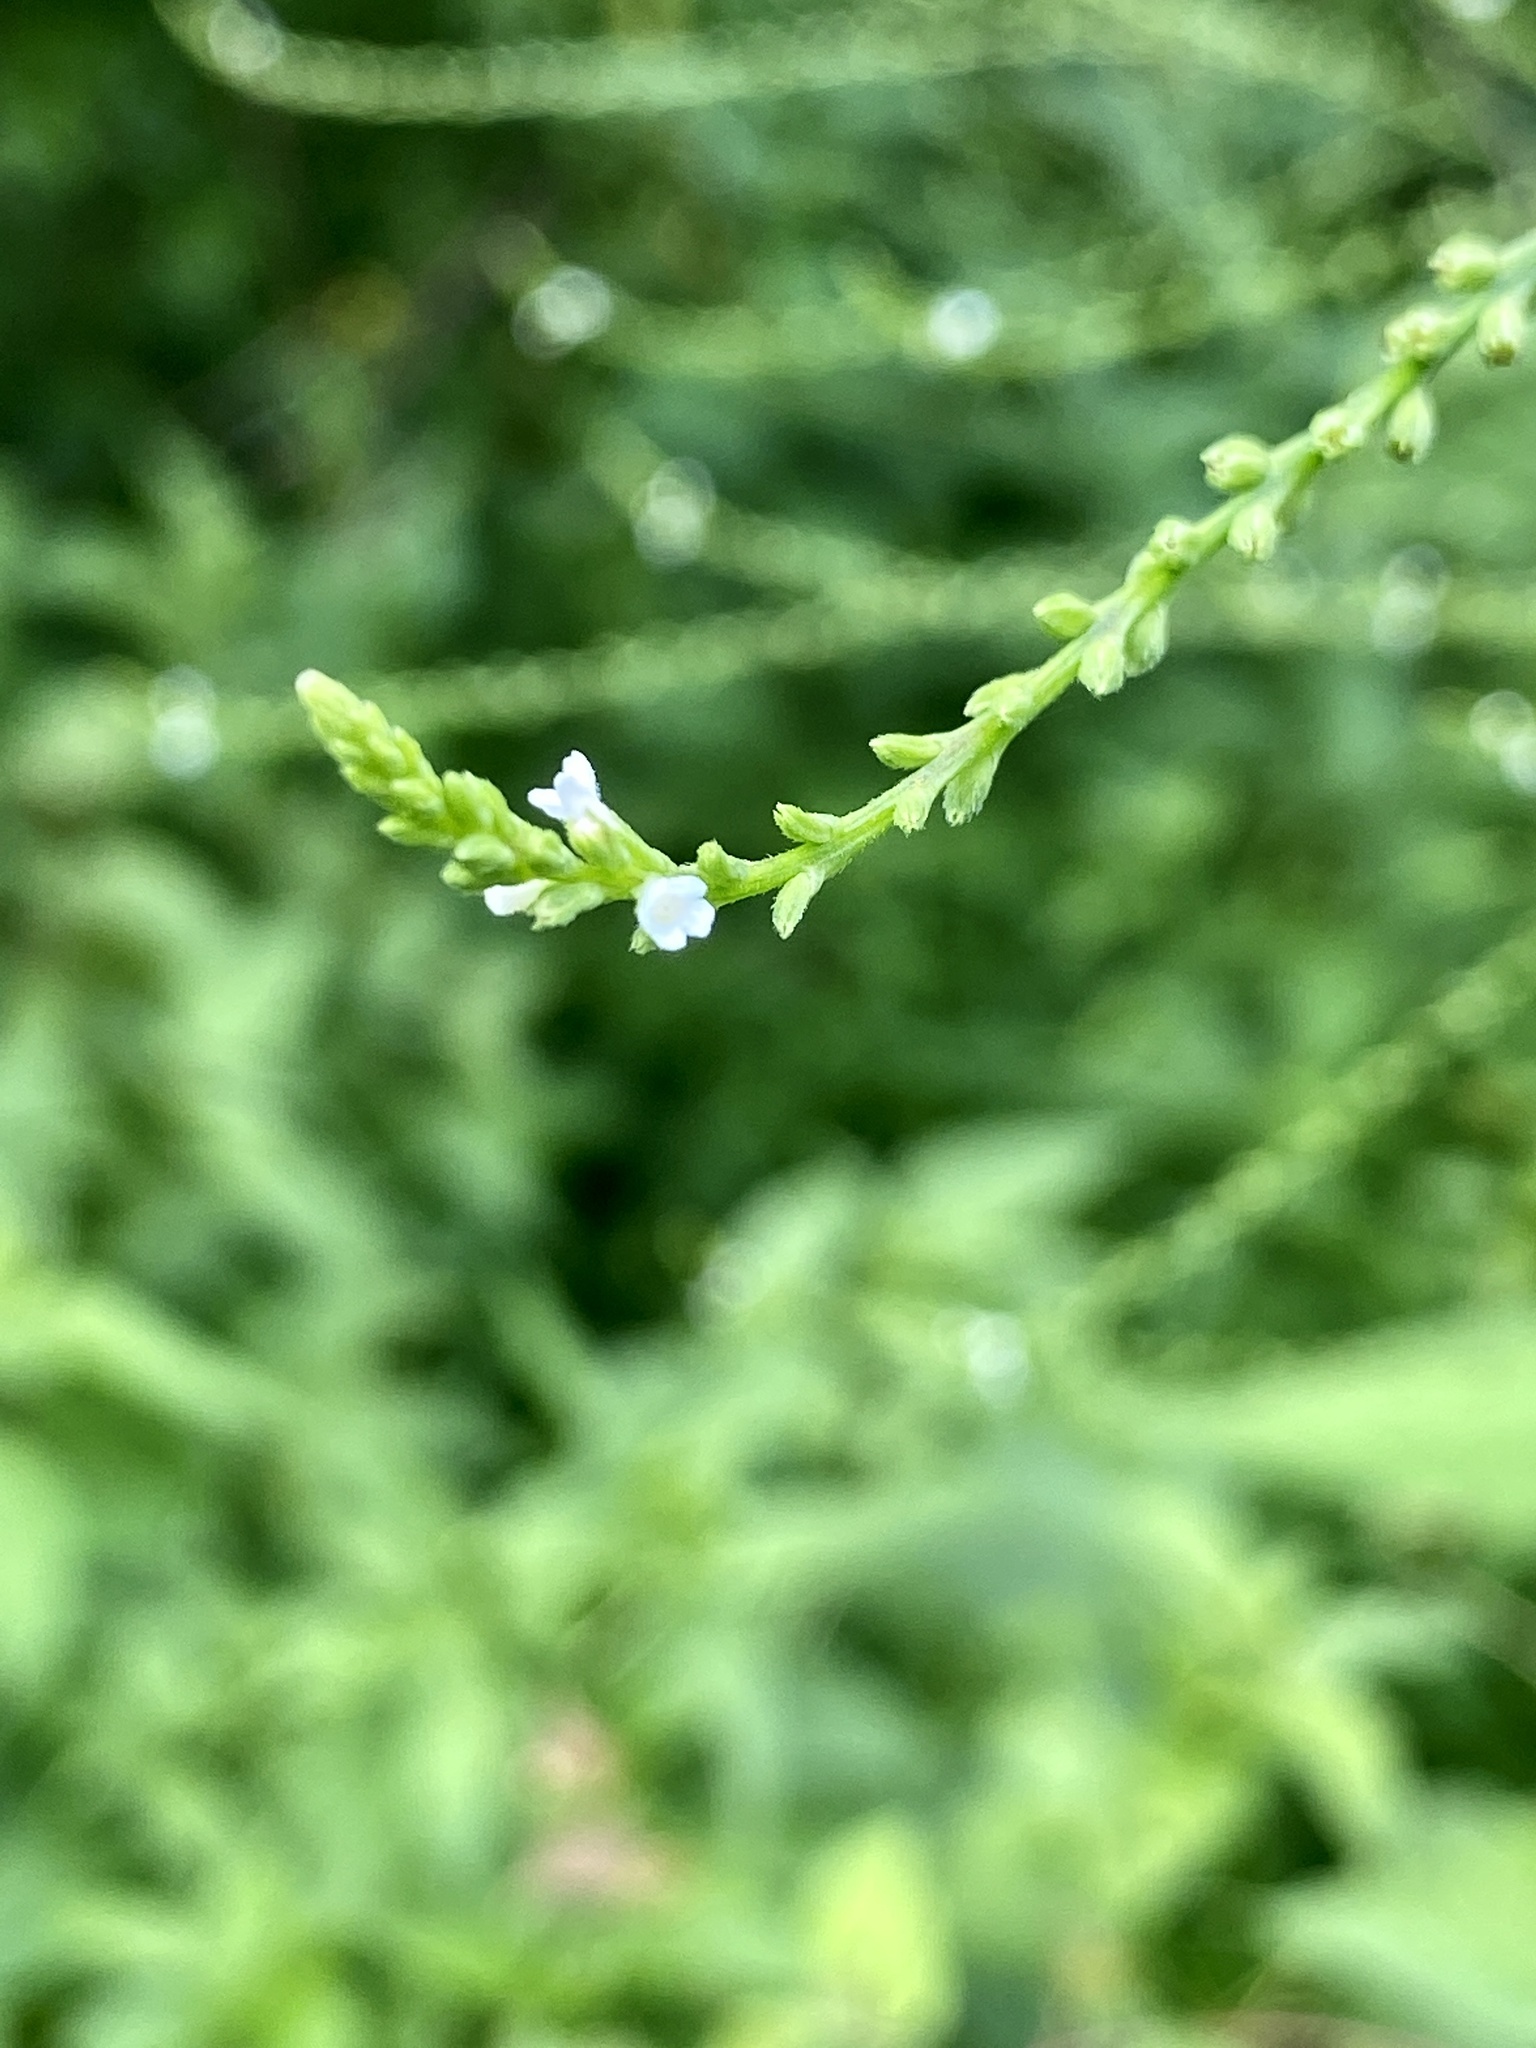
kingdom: Plantae
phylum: Tracheophyta
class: Magnoliopsida
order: Lamiales
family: Verbenaceae
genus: Verbena
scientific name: Verbena urticifolia
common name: Nettle-leaved vervain
